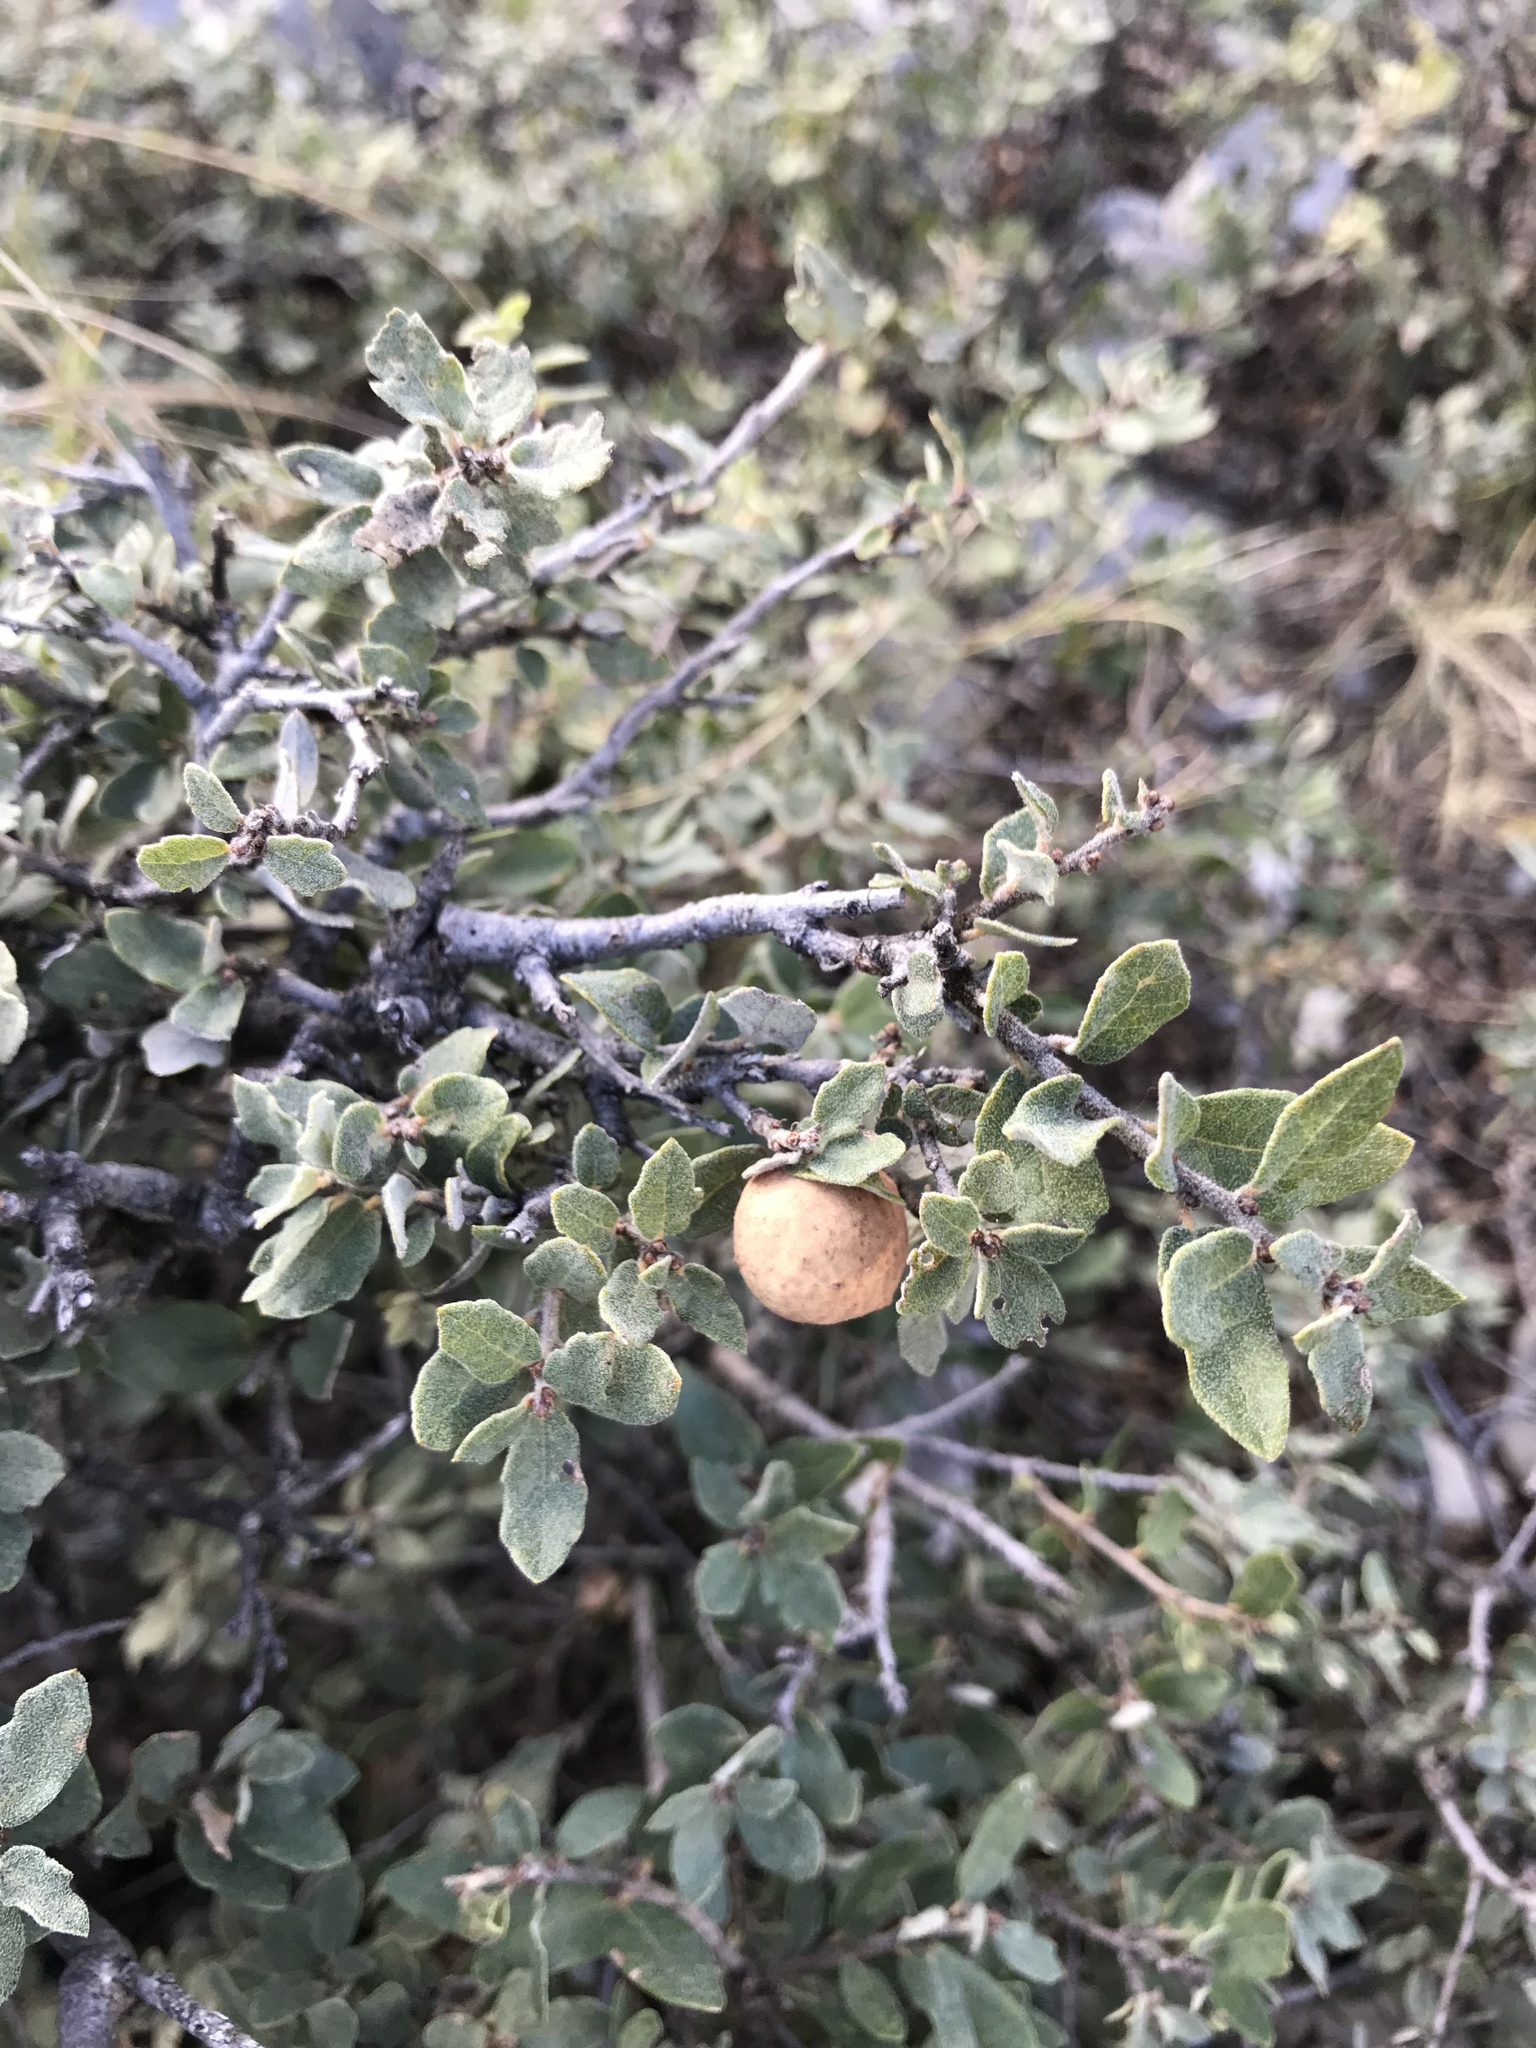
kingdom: Plantae
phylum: Tracheophyta
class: Magnoliopsida
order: Fagales
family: Fagaceae
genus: Quercus
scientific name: Quercus intricata
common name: Dwarf oak
